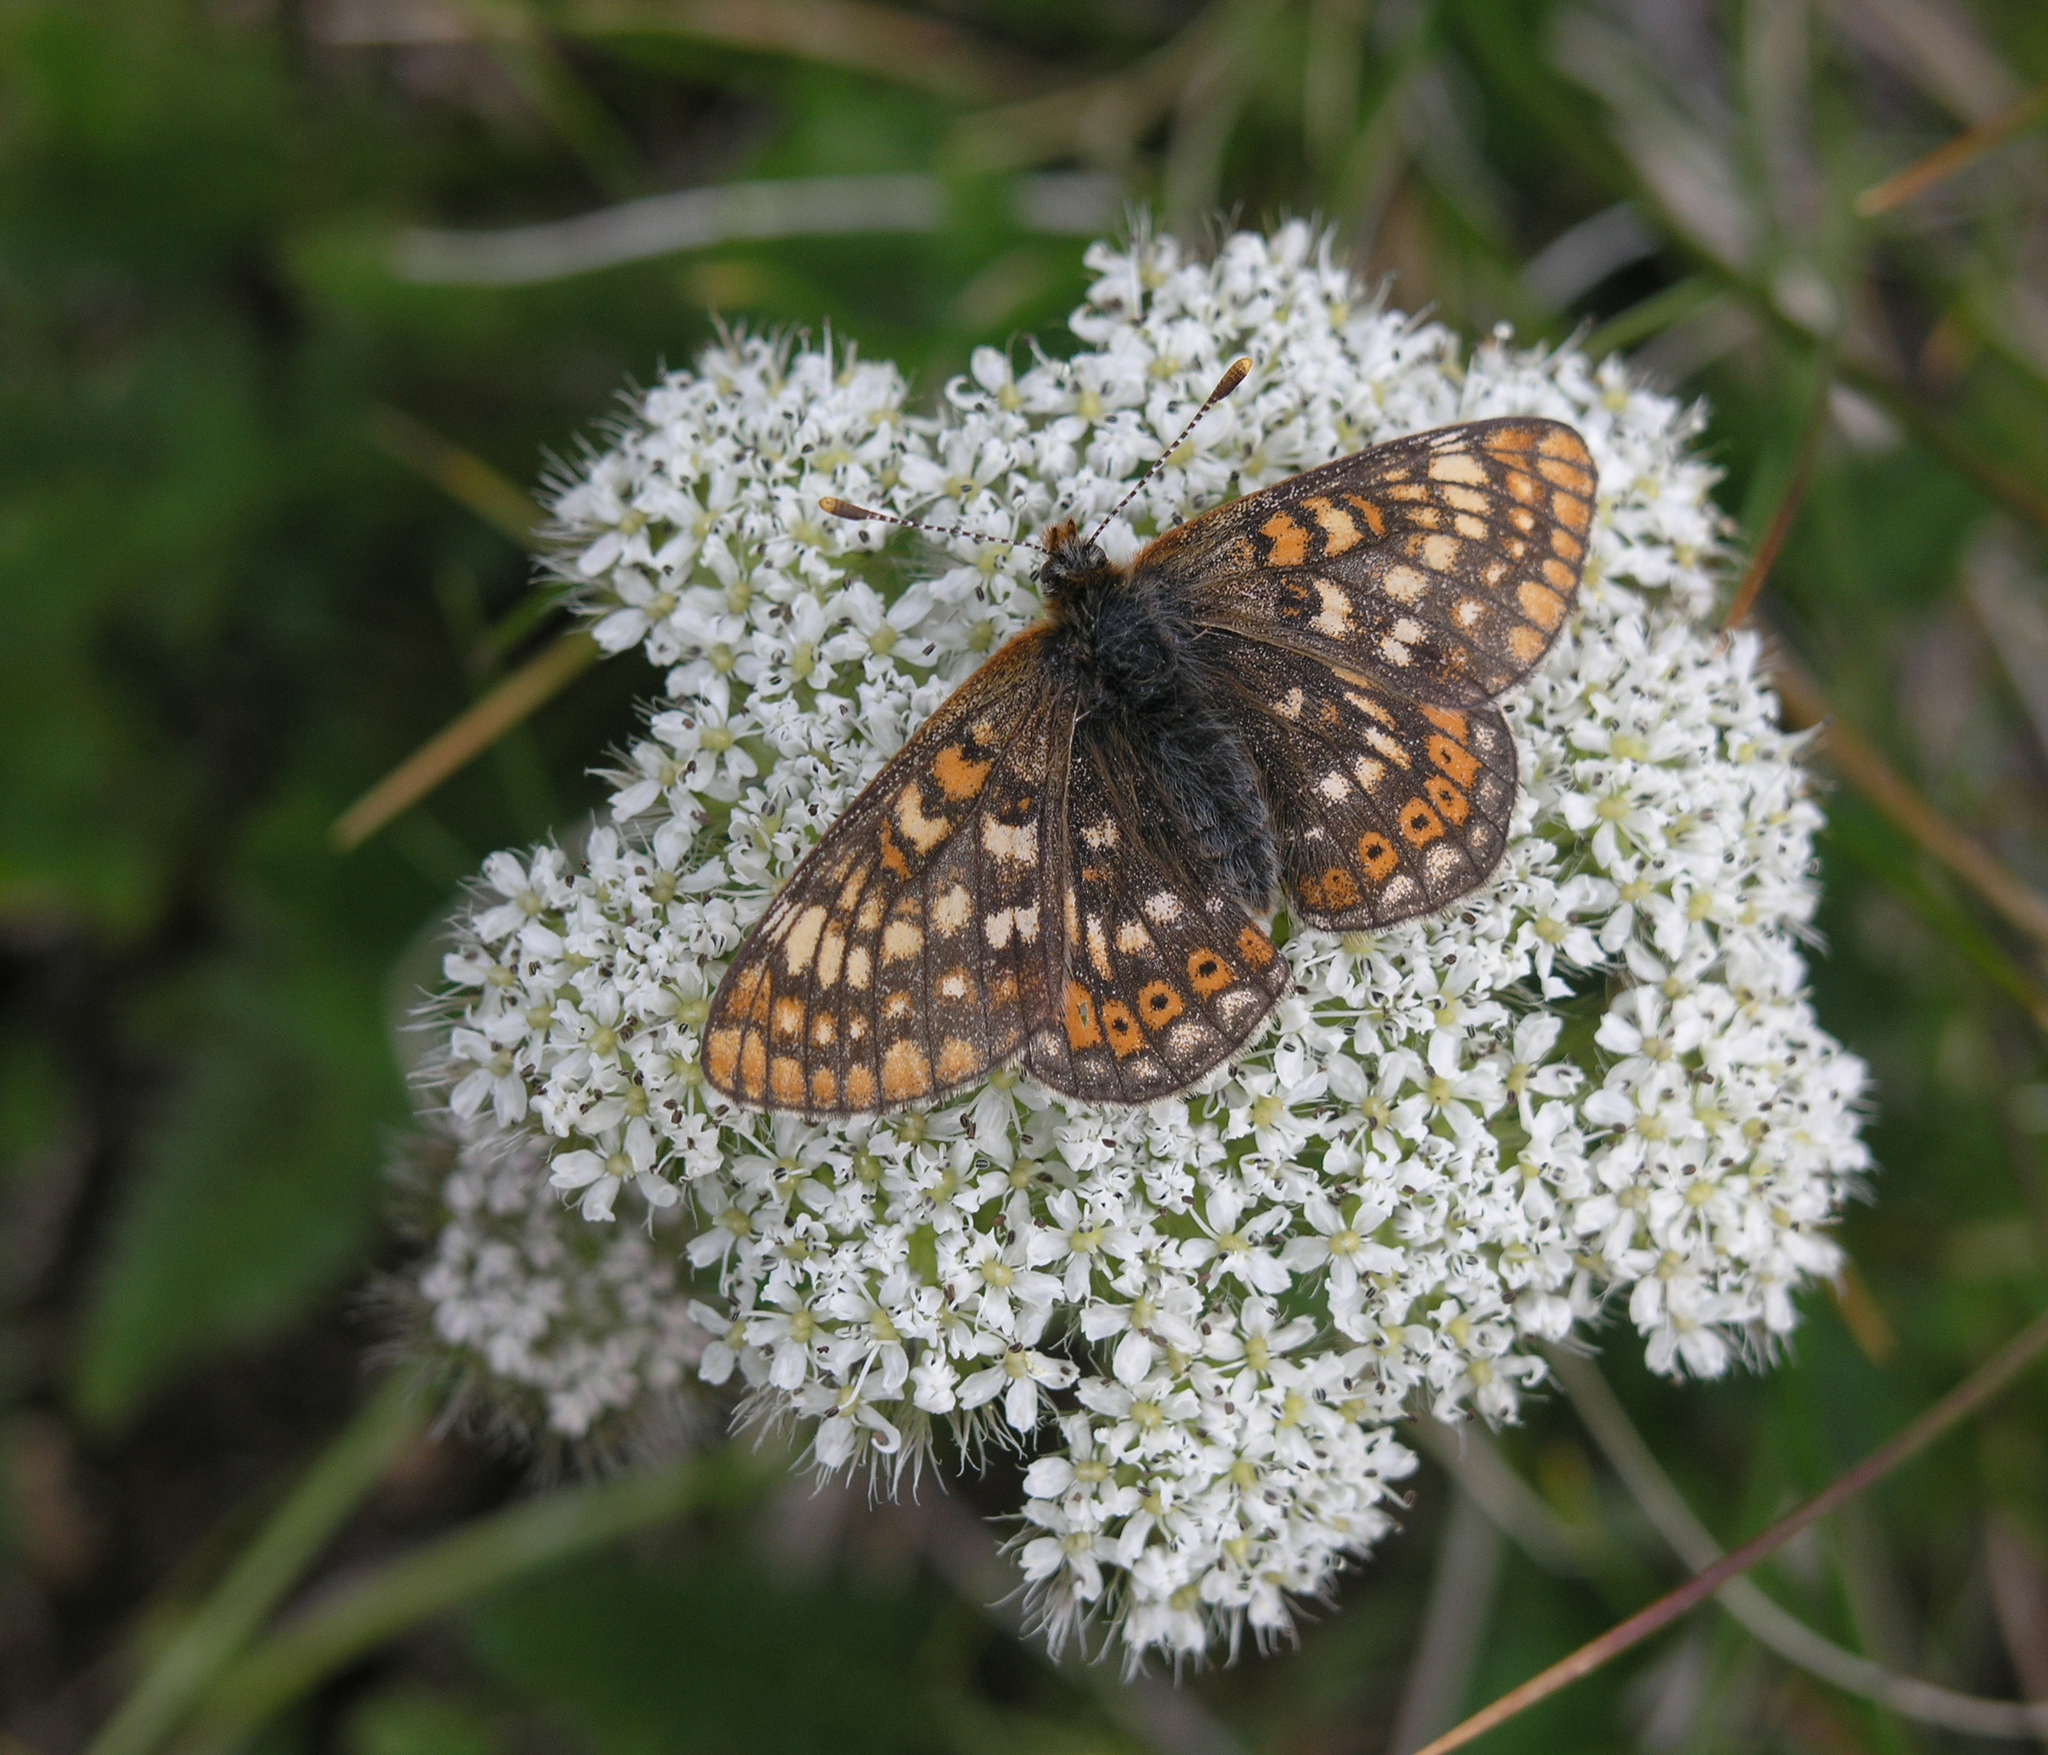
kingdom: Animalia
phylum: Arthropoda
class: Insecta
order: Lepidoptera
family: Nymphalidae
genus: Euphydryas
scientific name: Euphydryas aurinia
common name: Marsh fritillary
